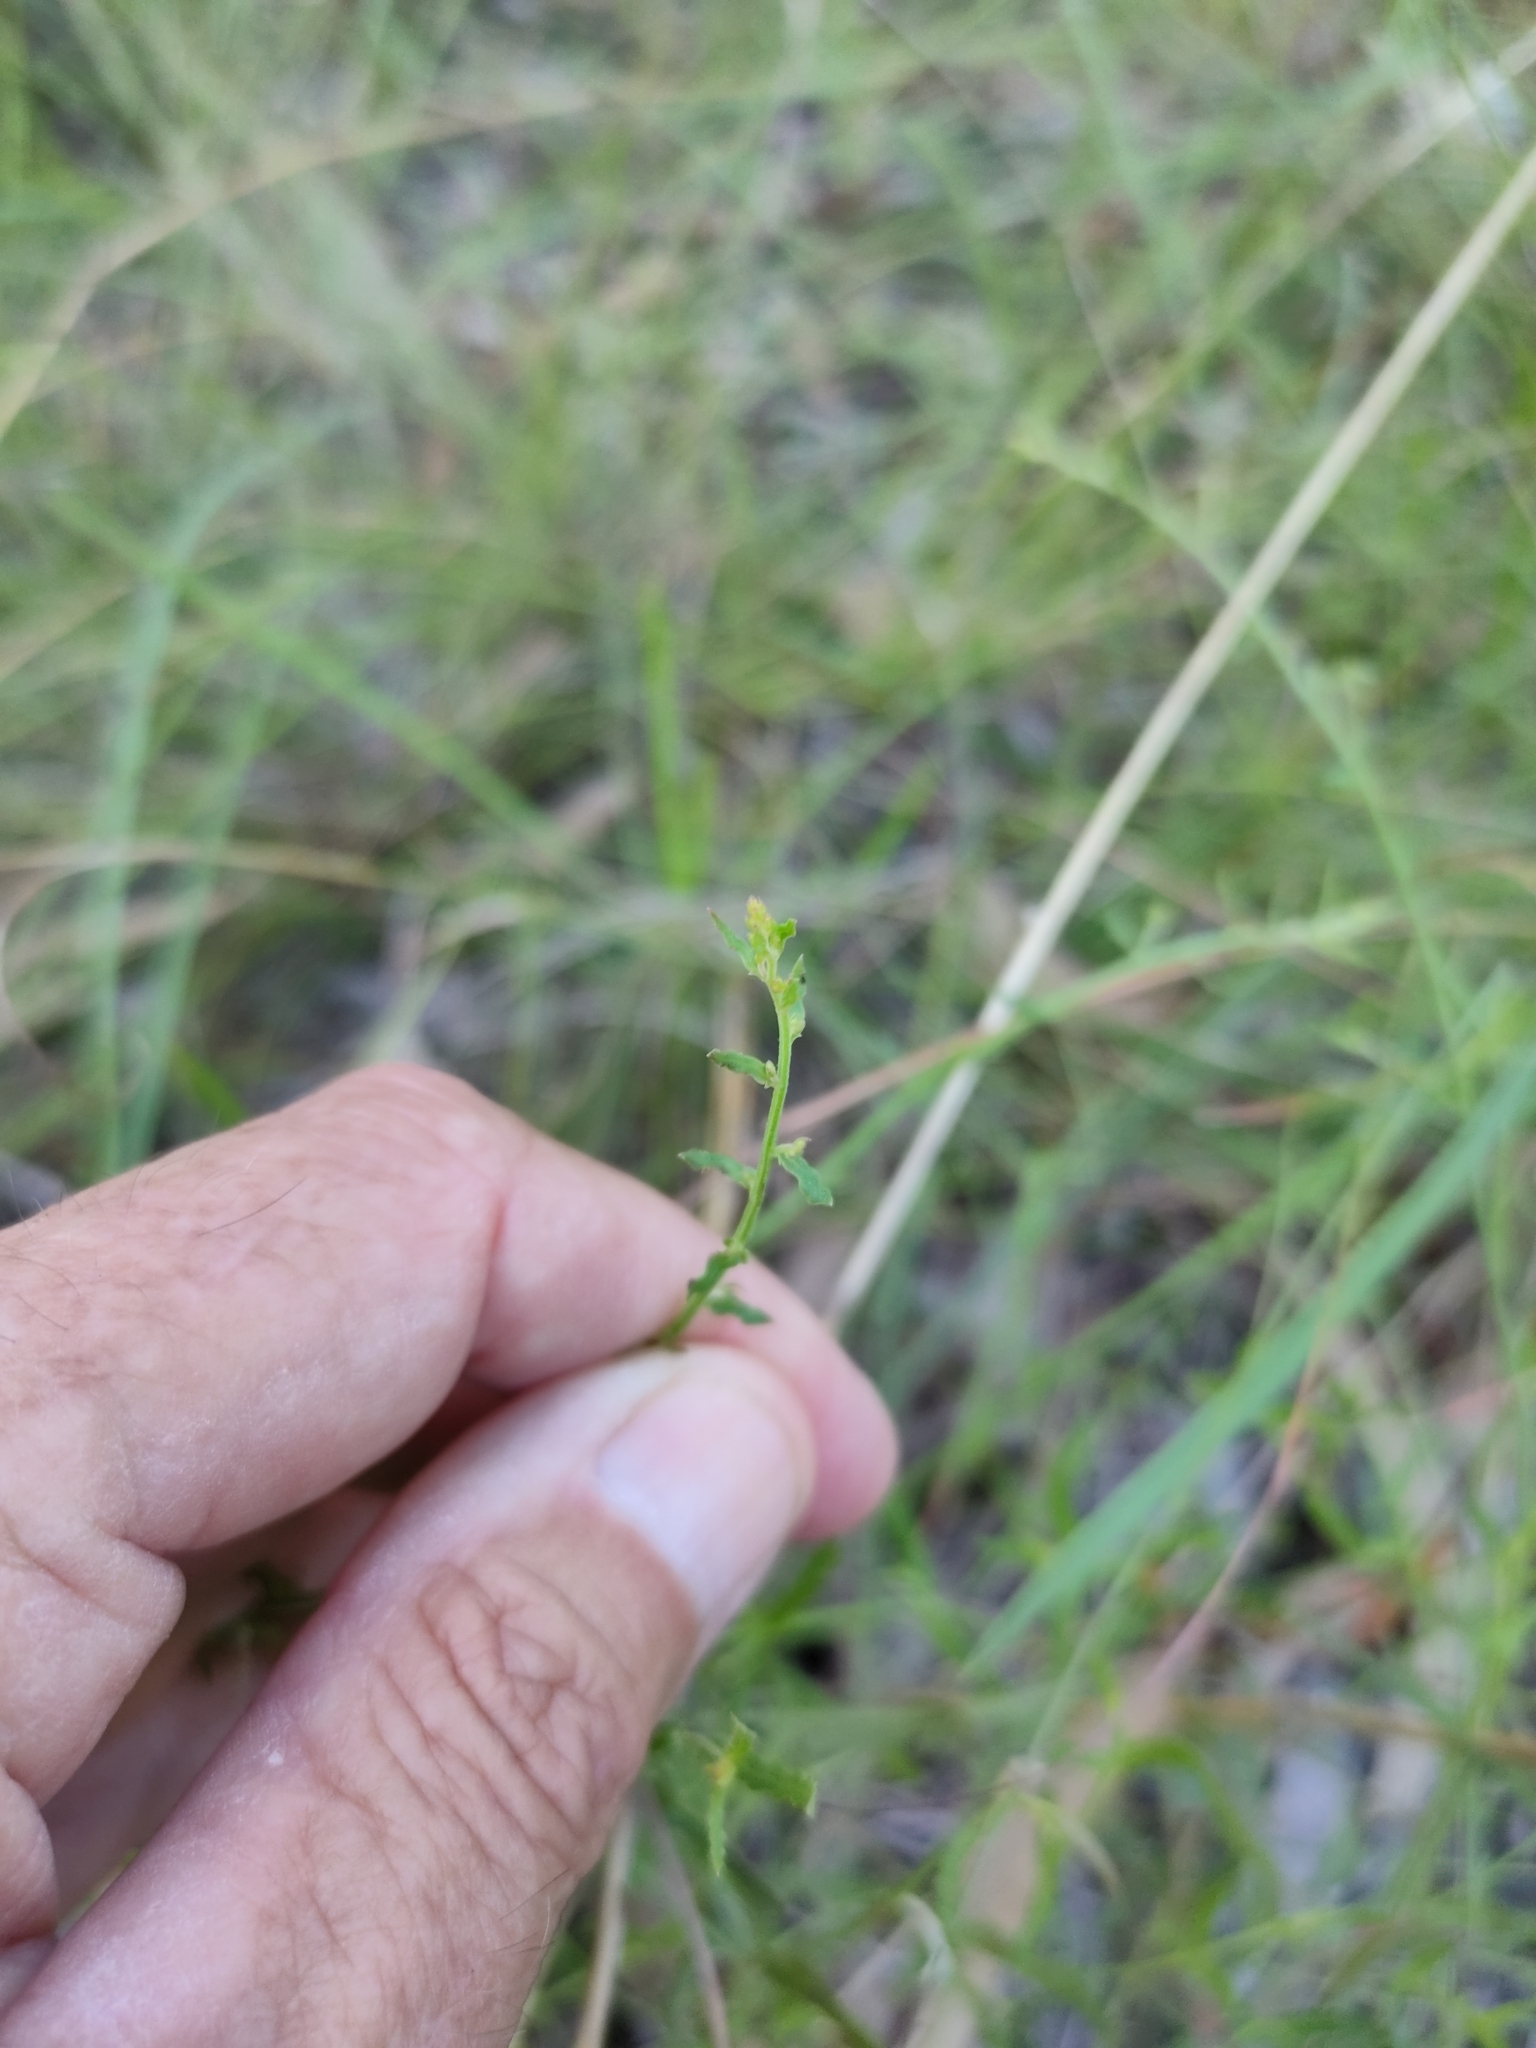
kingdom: Plantae
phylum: Tracheophyta
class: Magnoliopsida
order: Saxifragales
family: Haloragaceae
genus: Gonocarpus
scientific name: Gonocarpus chinensis
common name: Chinese raspwort
